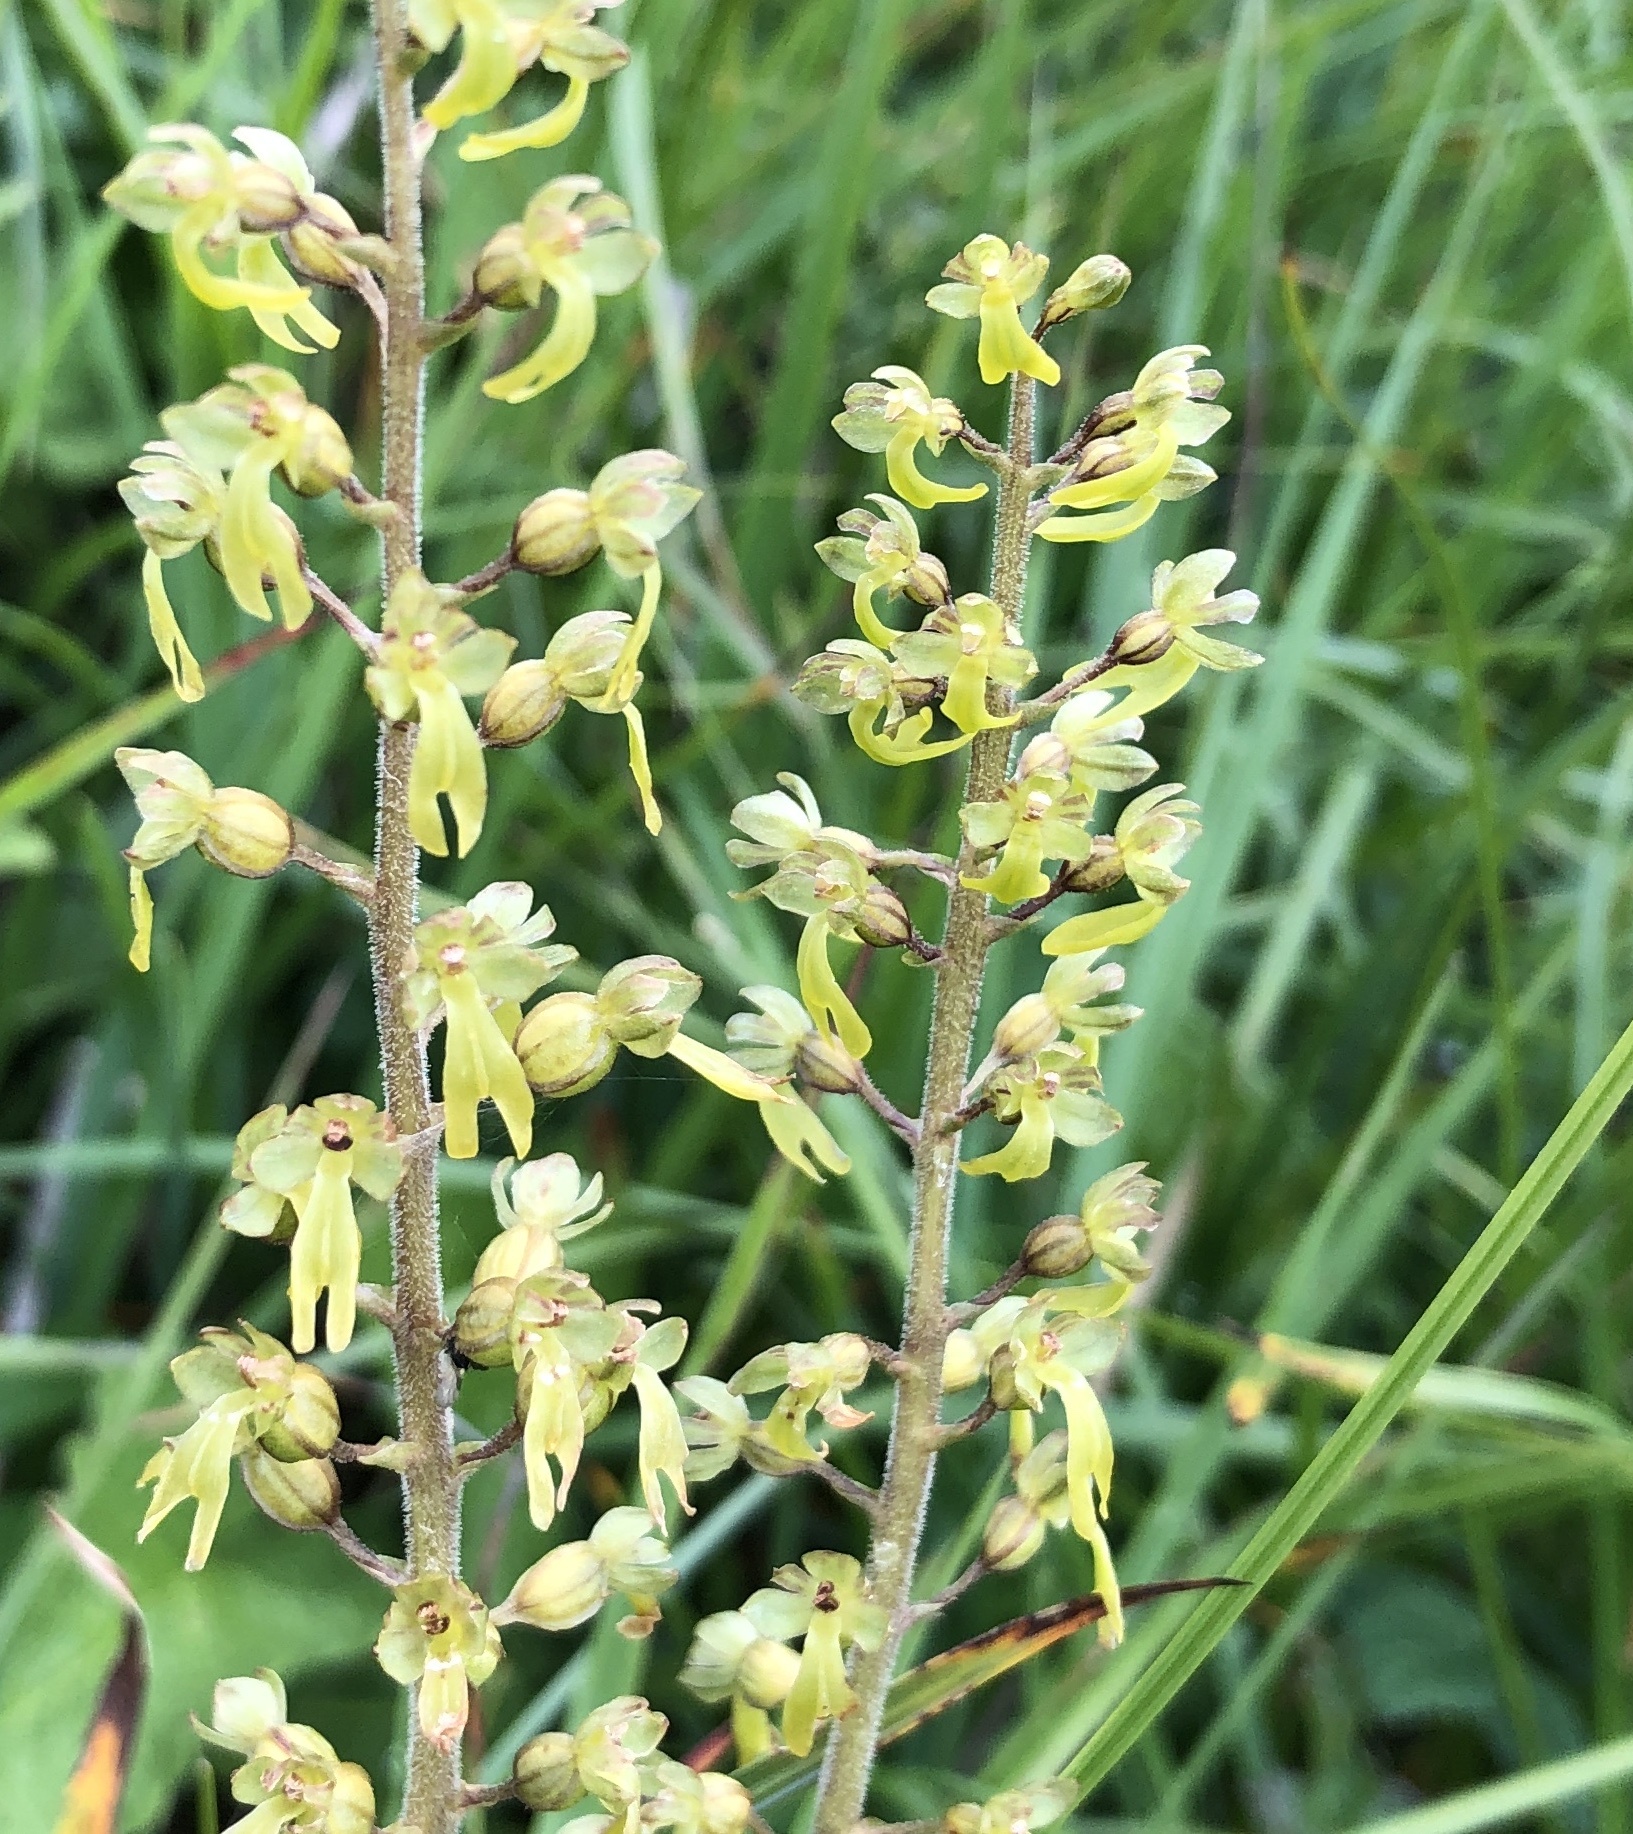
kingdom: Plantae
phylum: Tracheophyta
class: Liliopsida
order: Asparagales
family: Orchidaceae
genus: Neottia
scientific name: Neottia ovata
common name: Common twayblade
